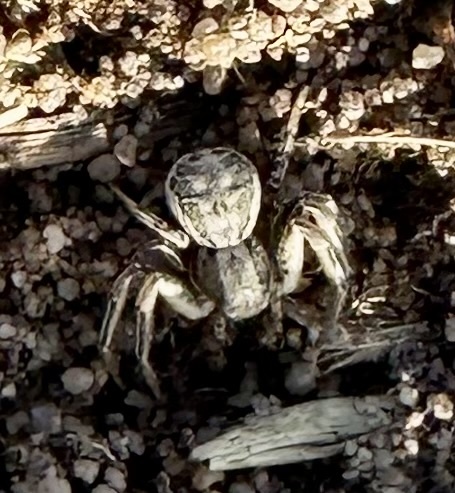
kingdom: Animalia
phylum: Arthropoda
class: Arachnida
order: Araneae
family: Thomisidae
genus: Xysticus
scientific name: Xysticus
